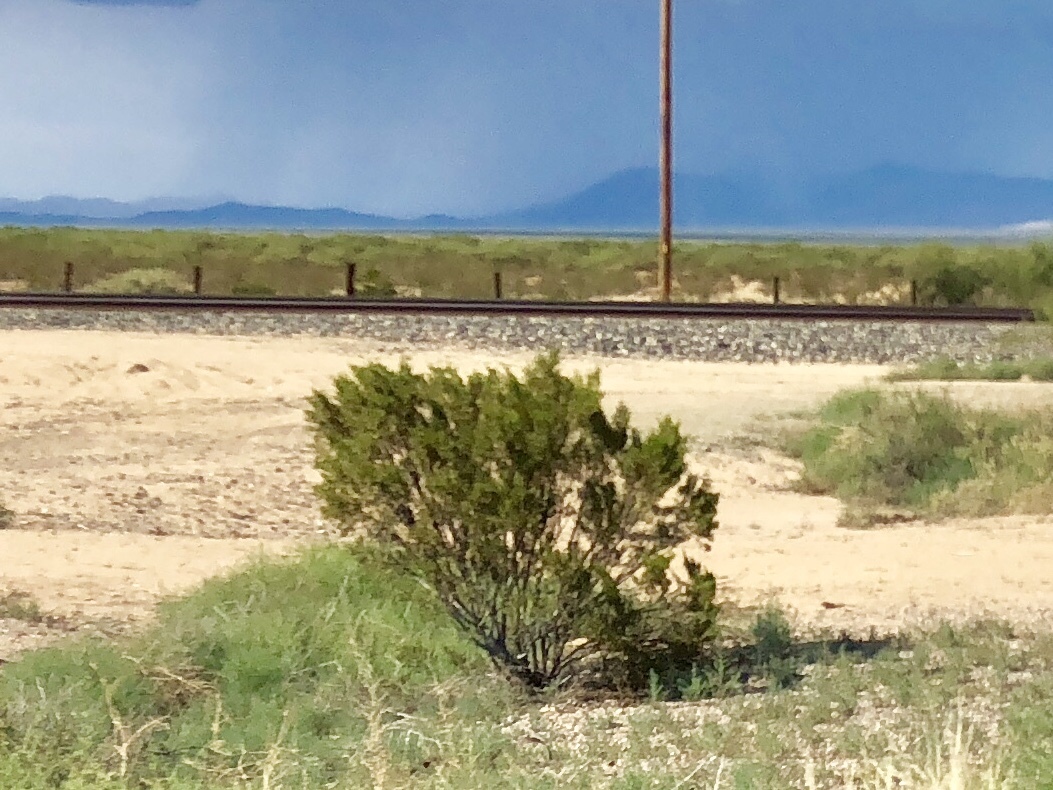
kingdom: Plantae
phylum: Tracheophyta
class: Magnoliopsida
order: Zygophyllales
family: Zygophyllaceae
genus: Larrea
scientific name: Larrea tridentata
